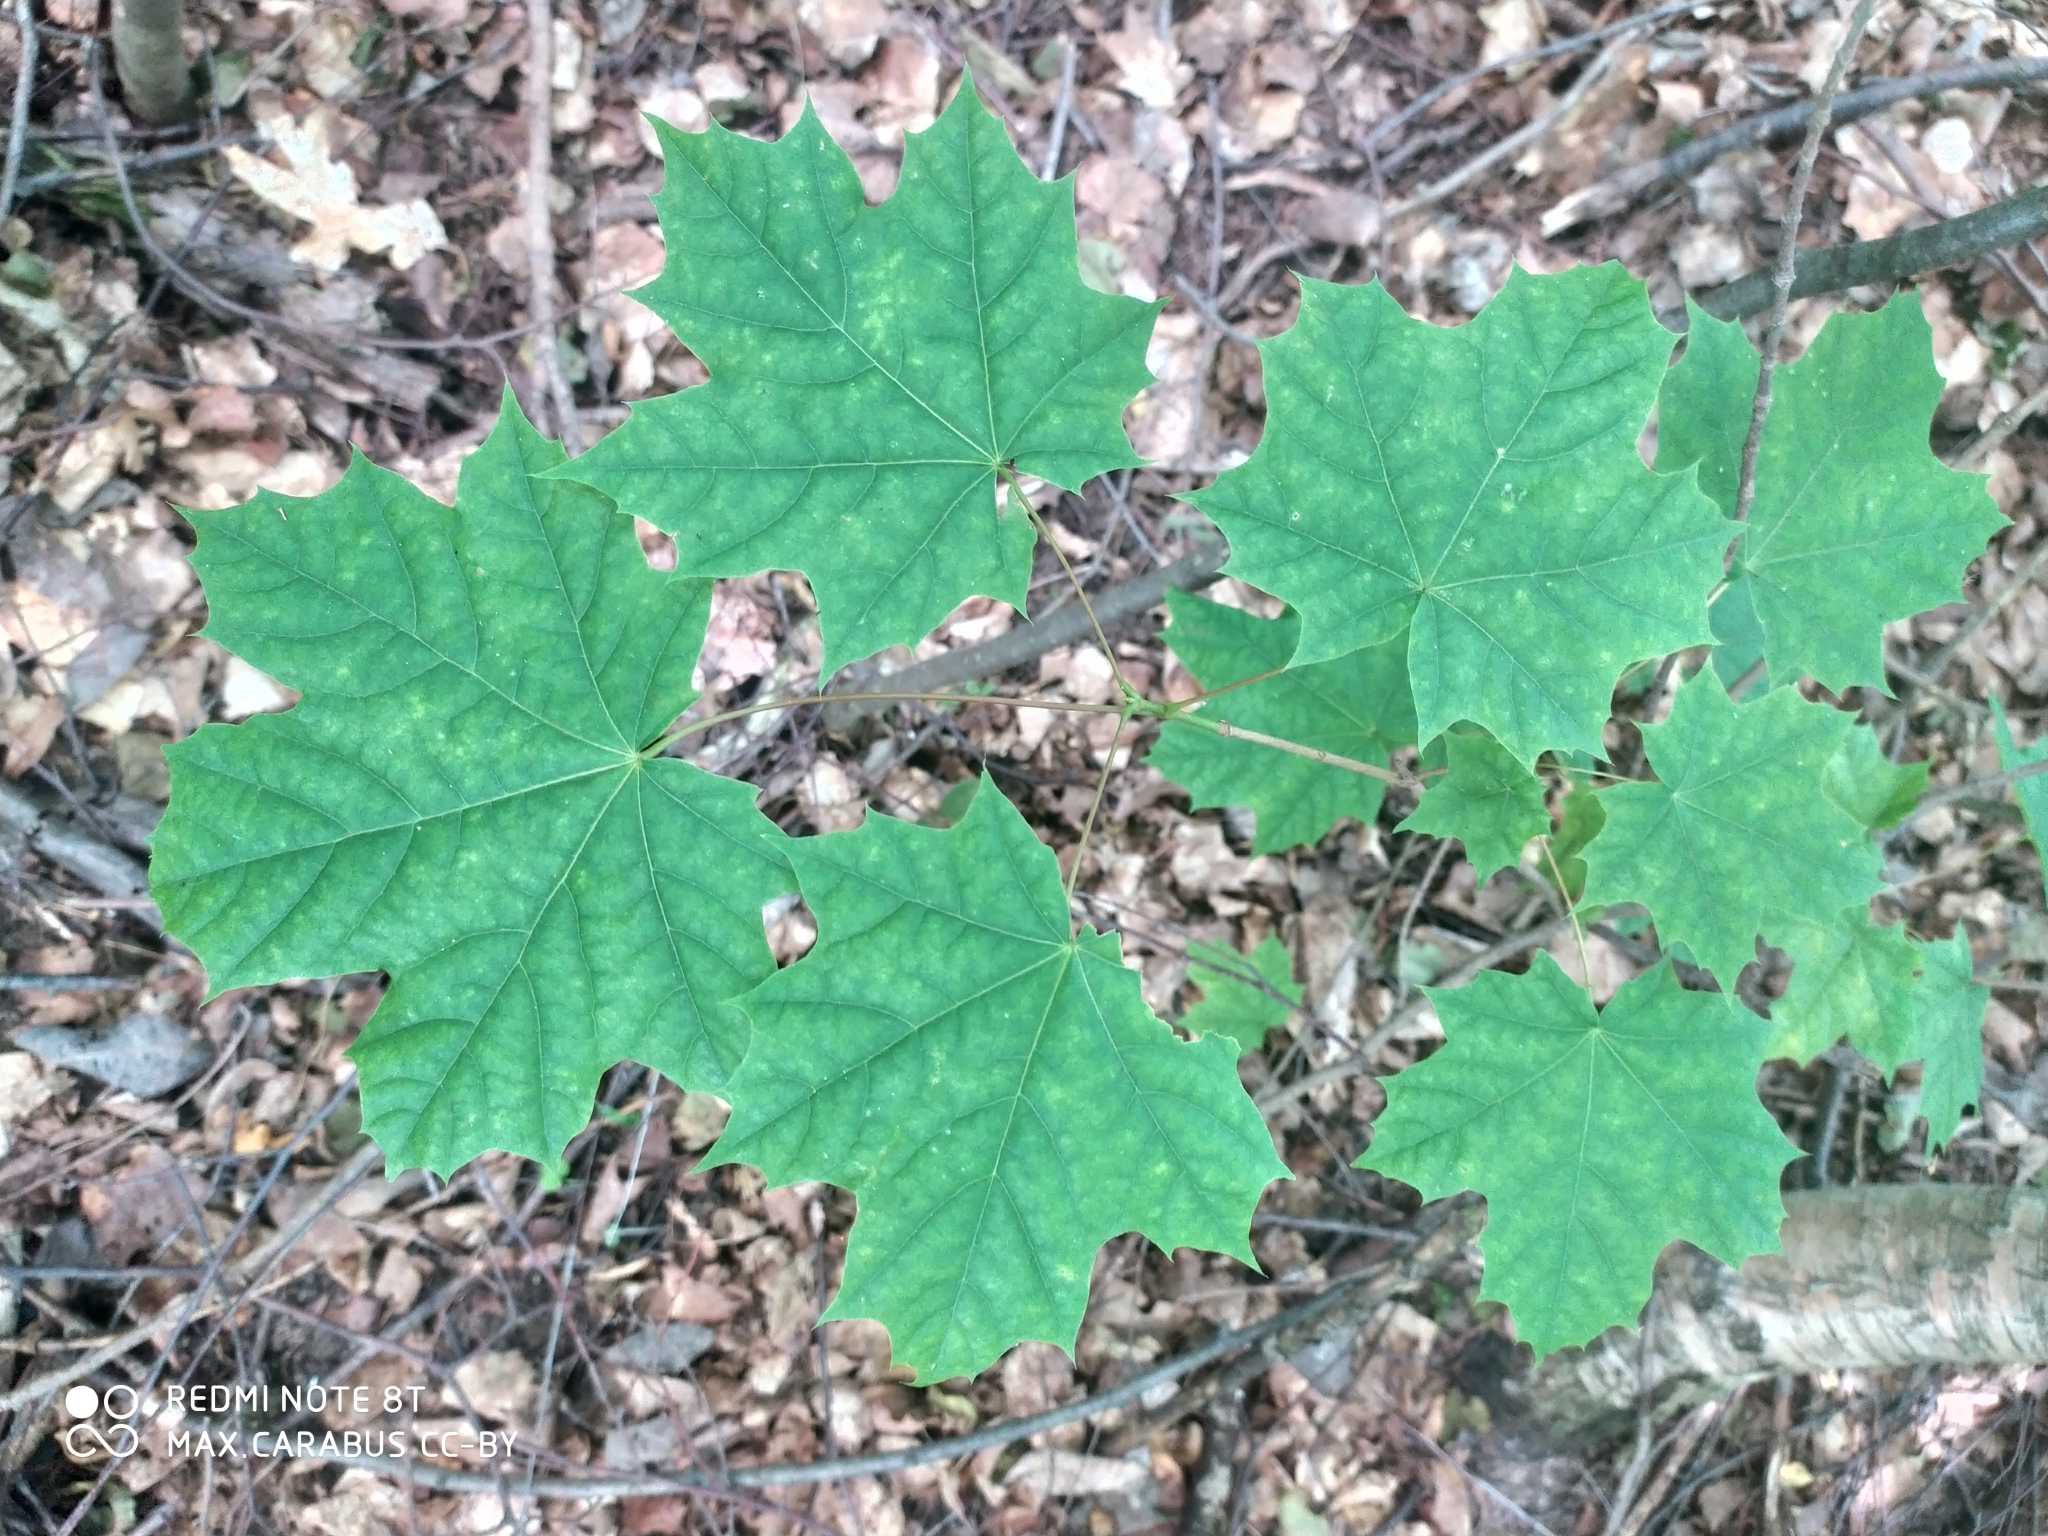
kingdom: Plantae
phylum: Tracheophyta
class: Magnoliopsida
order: Sapindales
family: Sapindaceae
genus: Acer
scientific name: Acer platanoides
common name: Norway maple
